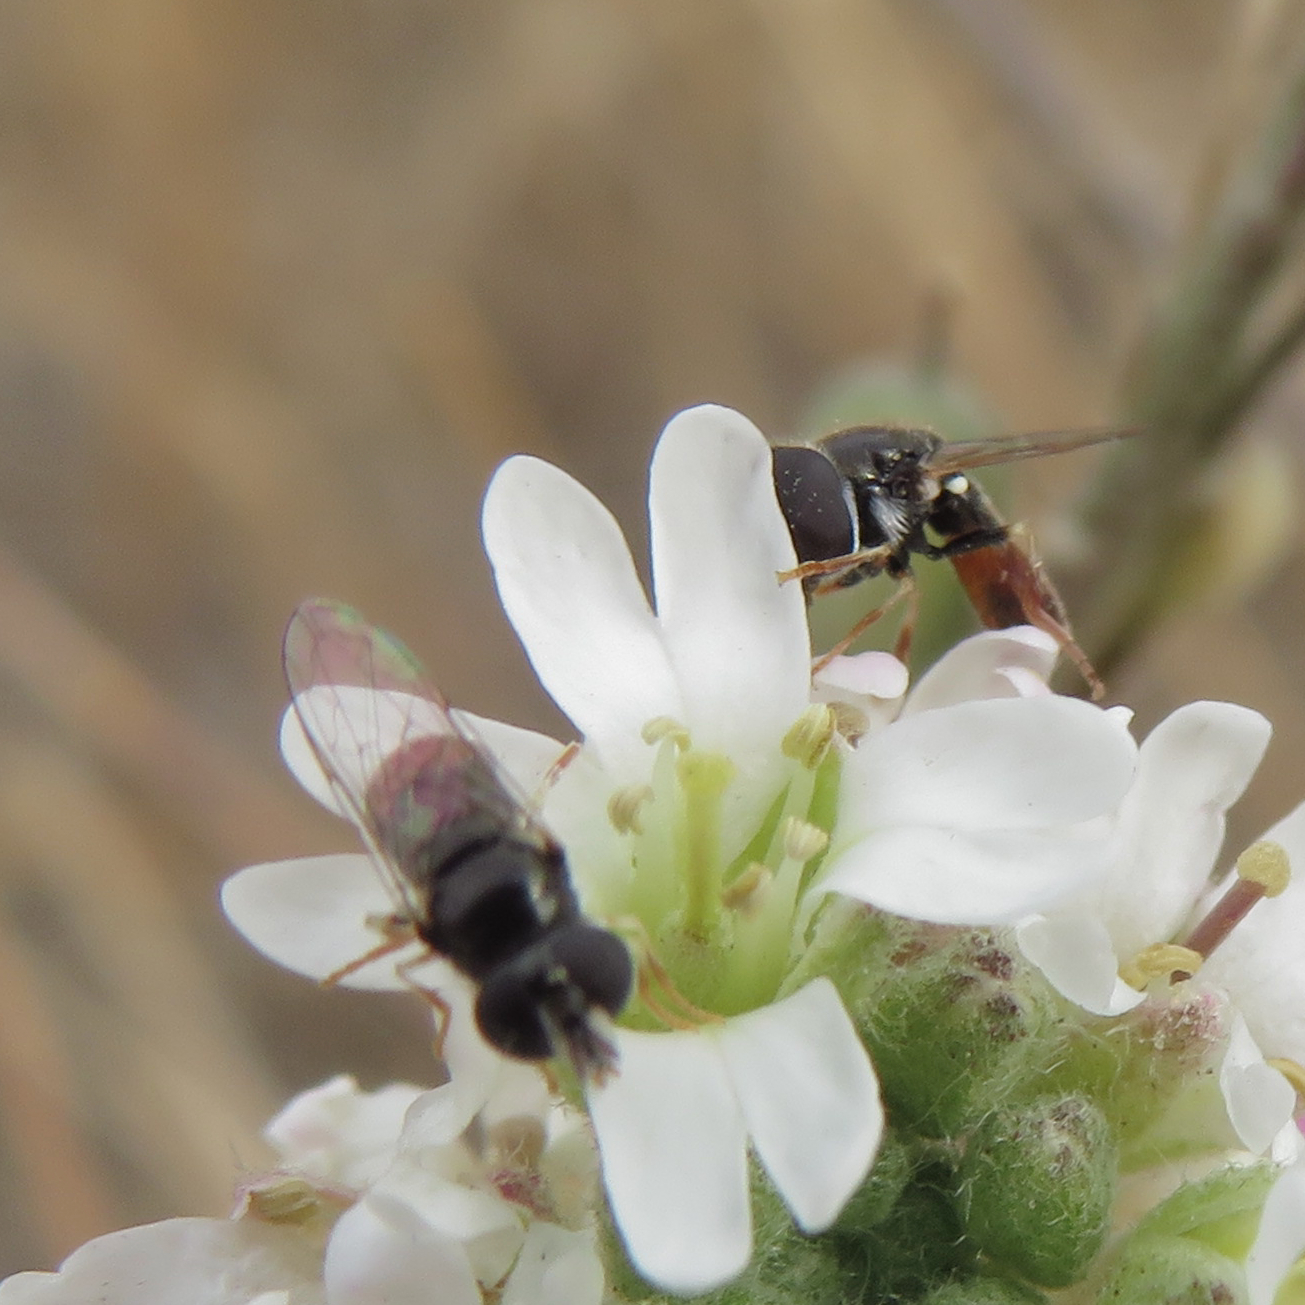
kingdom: Animalia
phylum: Arthropoda
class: Insecta
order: Diptera
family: Syrphidae
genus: Paragus
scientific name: Paragus haemorrhous
